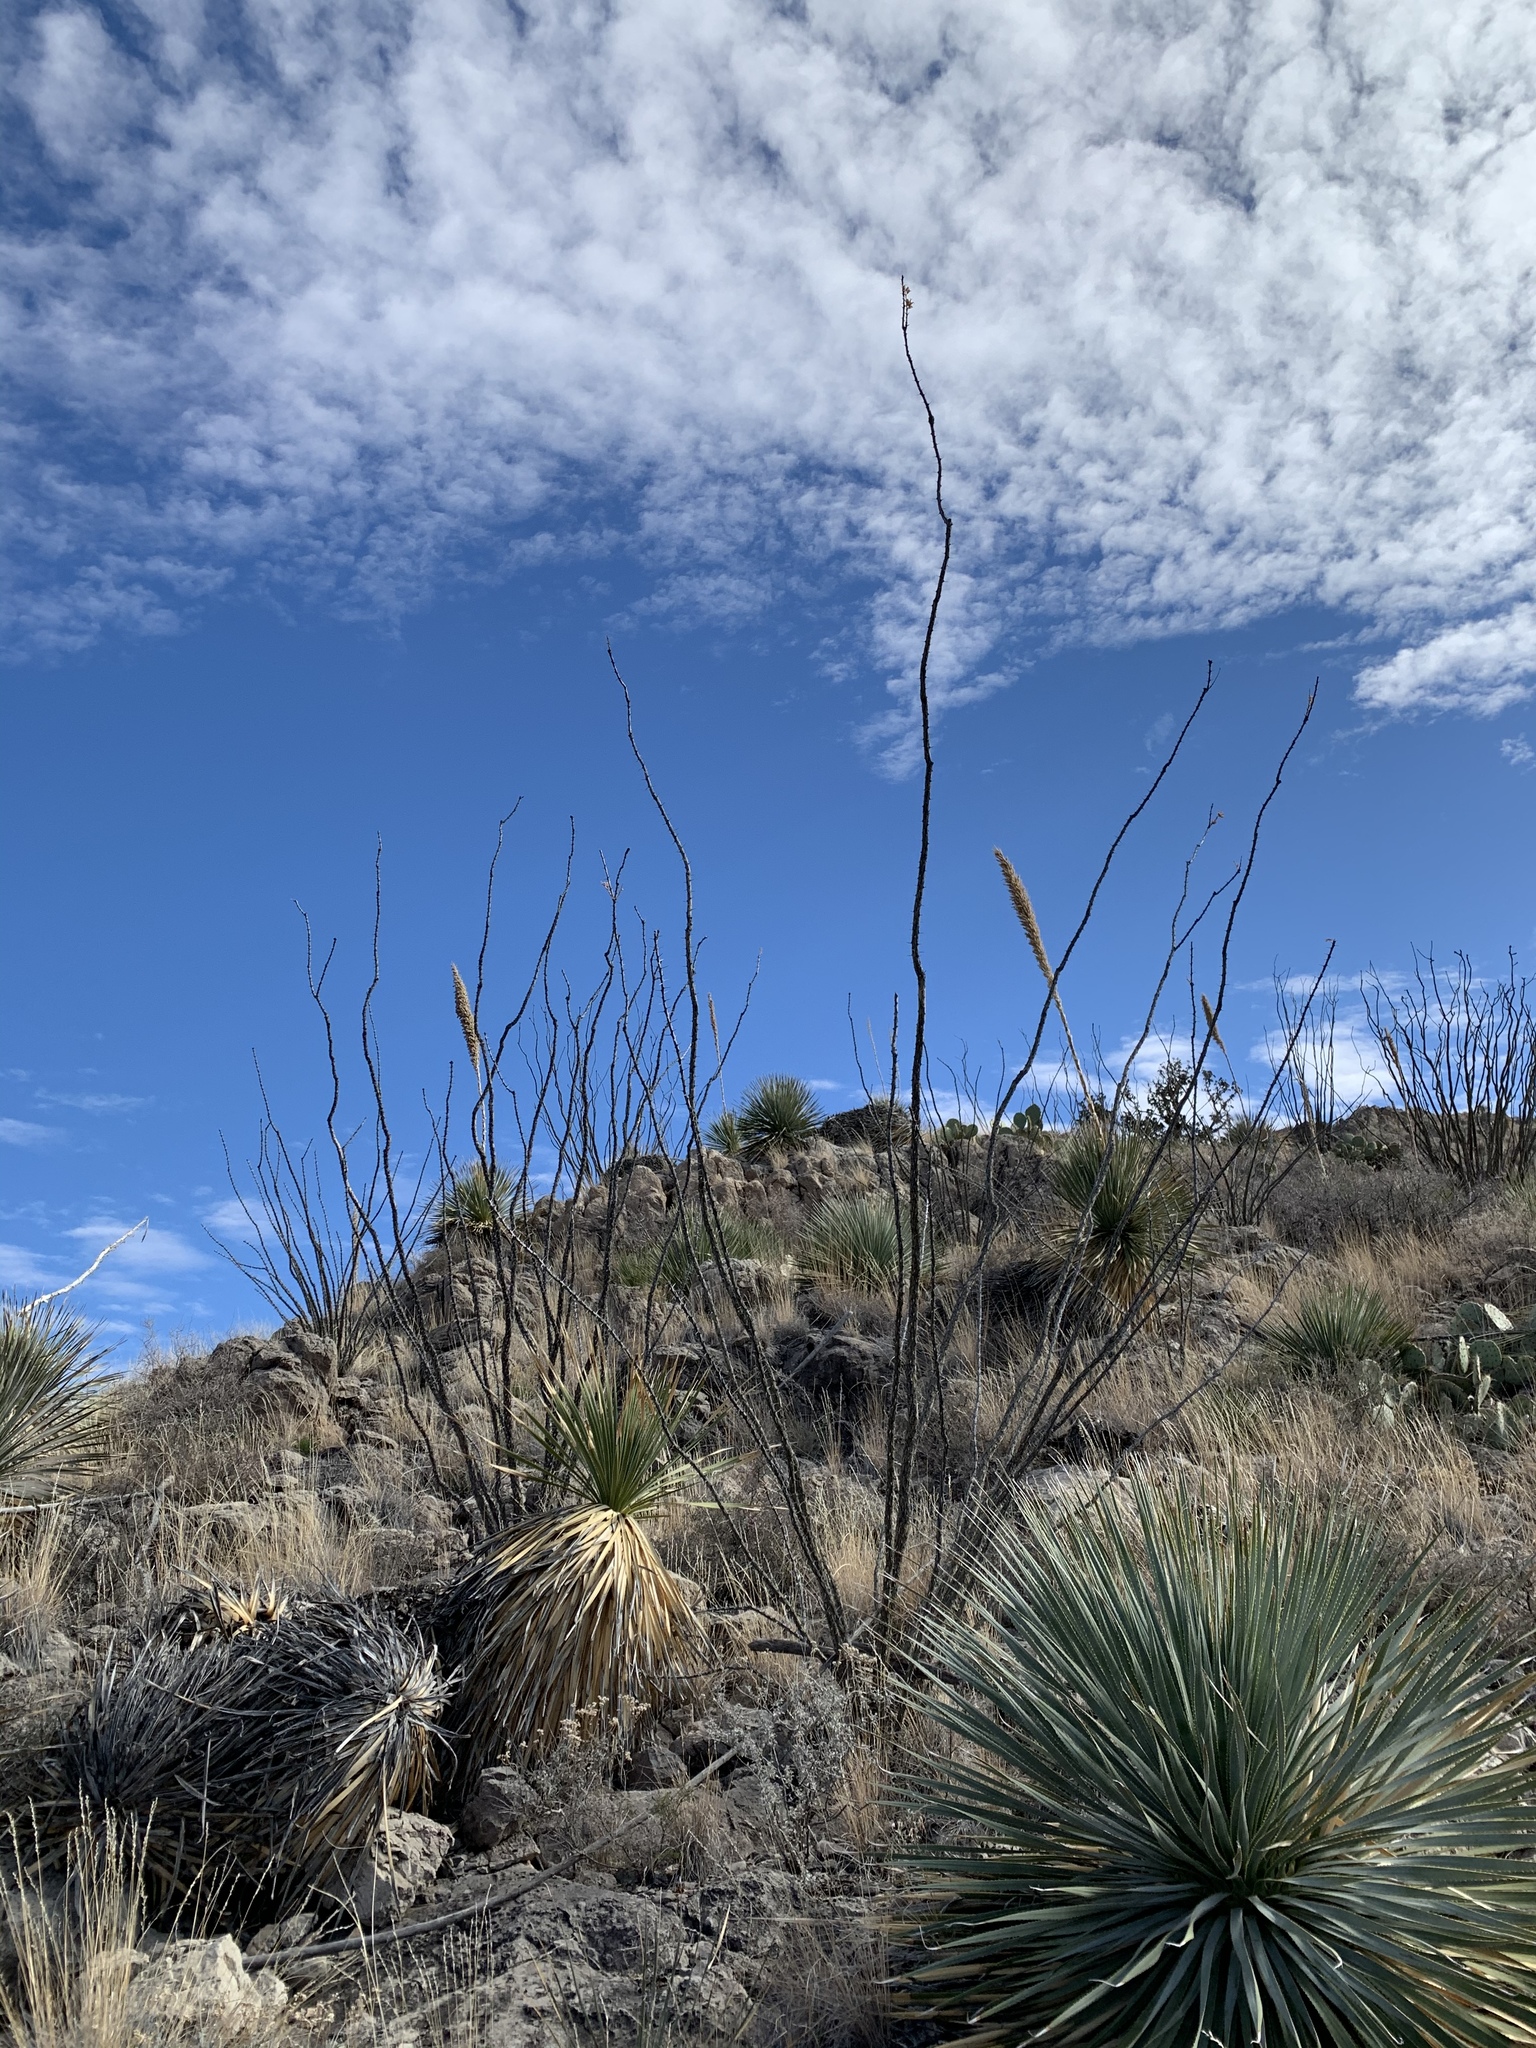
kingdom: Plantae
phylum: Tracheophyta
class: Liliopsida
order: Asparagales
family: Asparagaceae
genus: Dasylirion
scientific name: Dasylirion wheeleri
